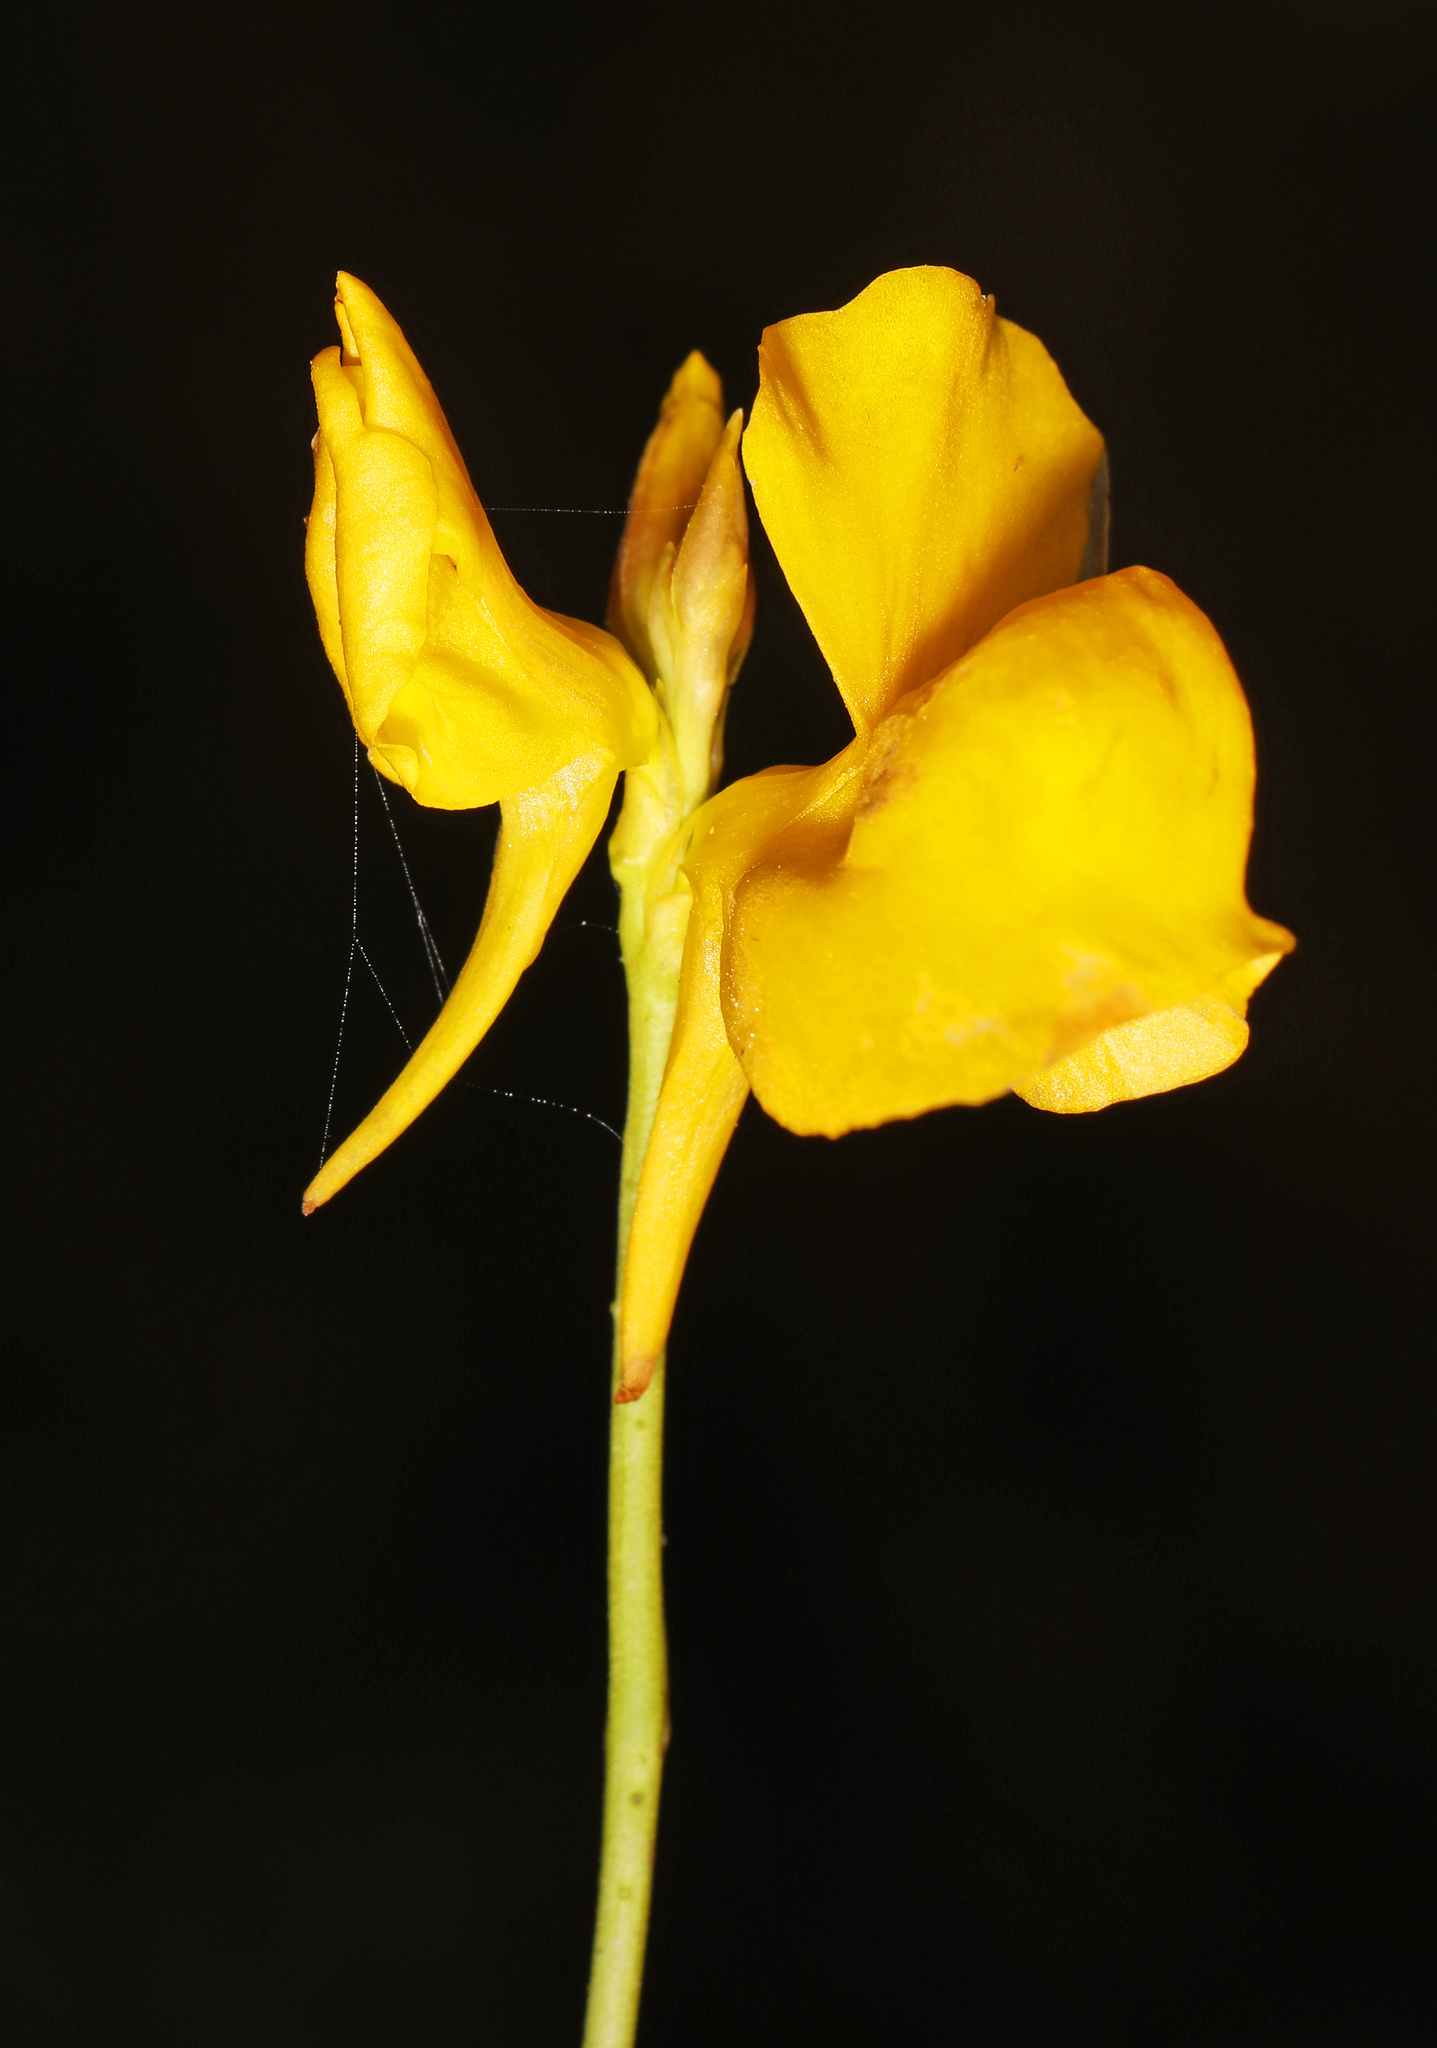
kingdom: Plantae
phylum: Tracheophyta
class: Magnoliopsida
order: Lamiales
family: Lentibulariaceae
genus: Utricularia
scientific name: Utricularia cornuta
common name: Horned bladderwort
